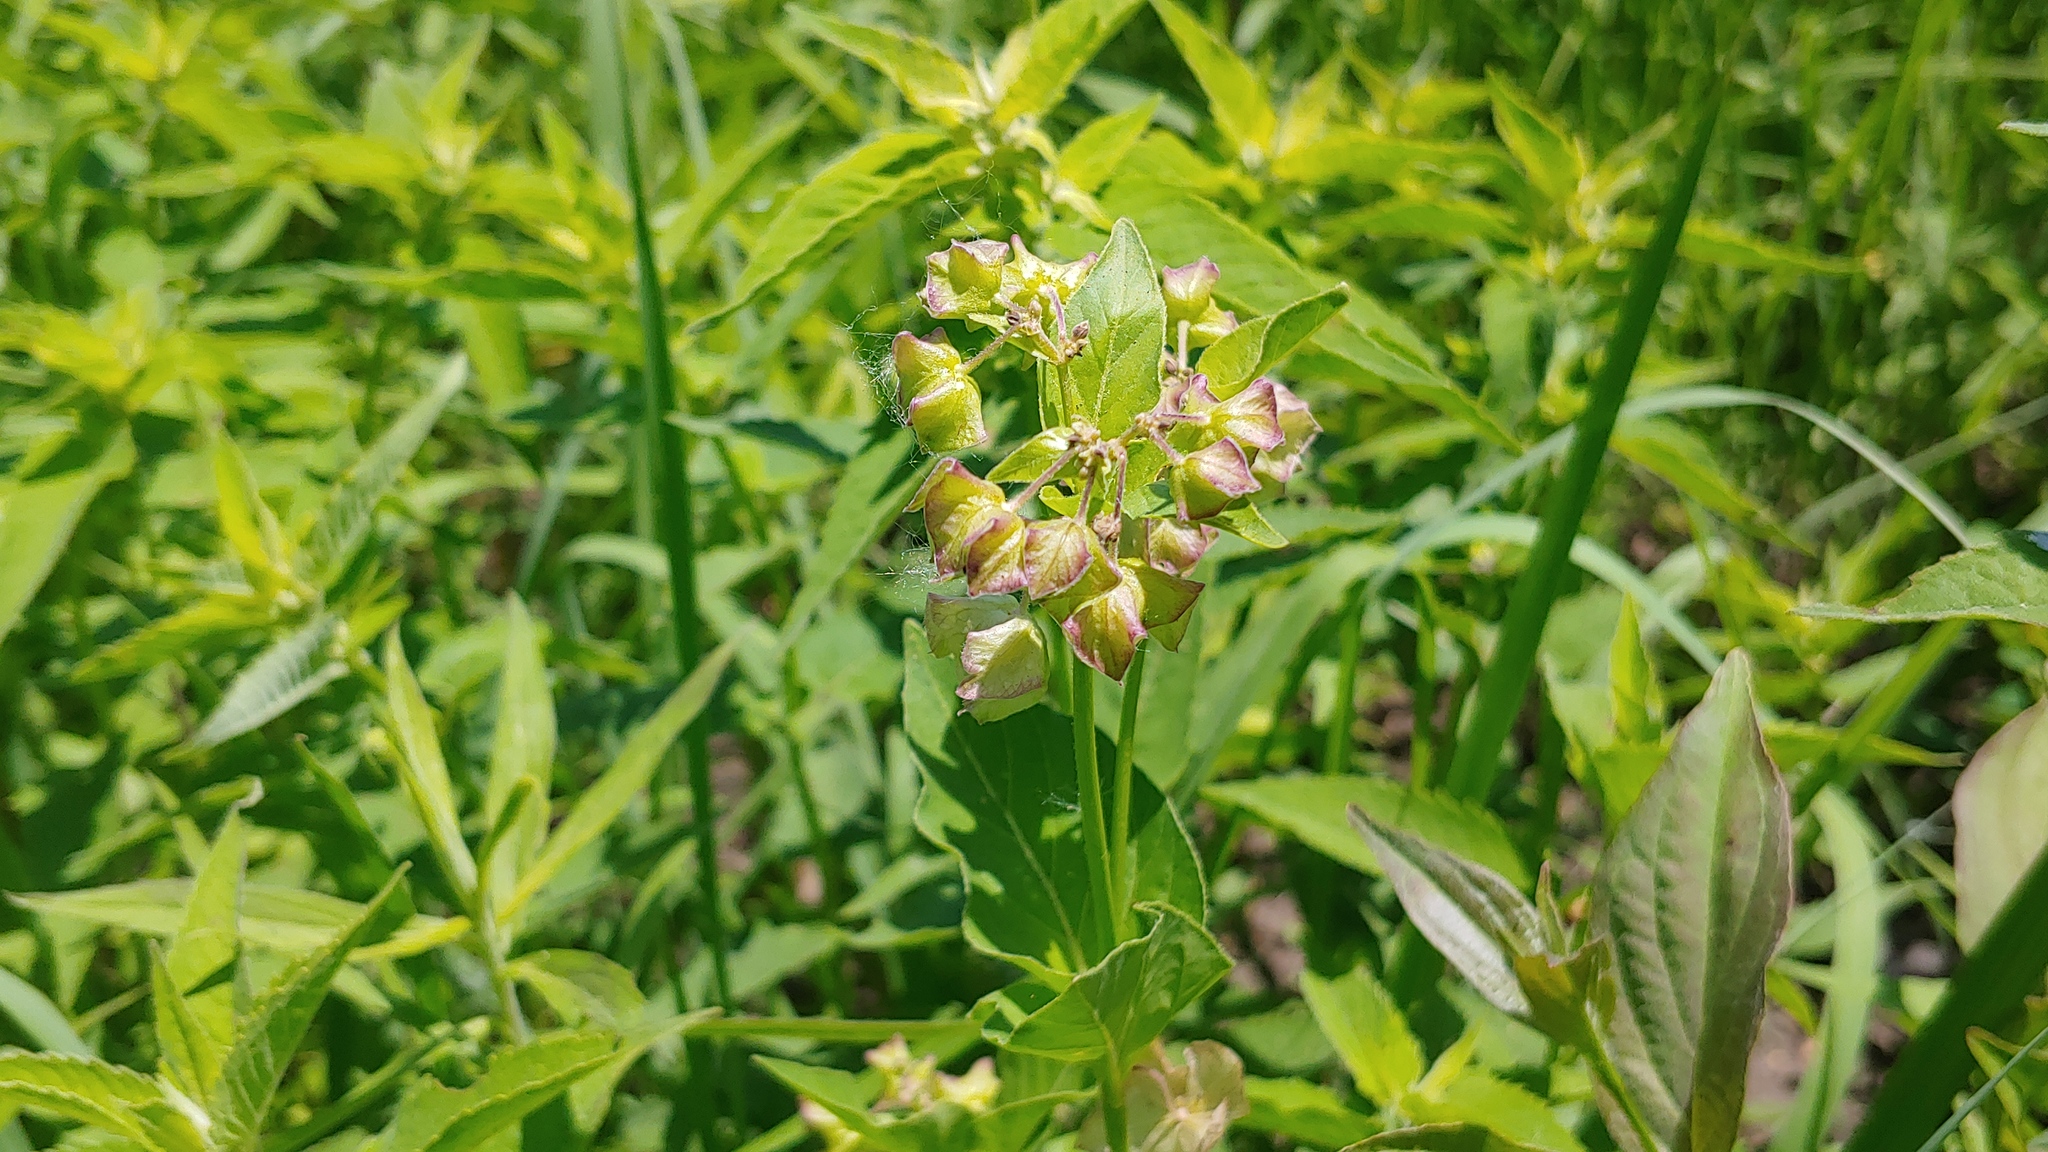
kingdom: Plantae
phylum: Tracheophyta
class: Magnoliopsida
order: Caryophyllales
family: Nyctaginaceae
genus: Mirabilis
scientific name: Mirabilis nyctaginea
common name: Umbrella wort
